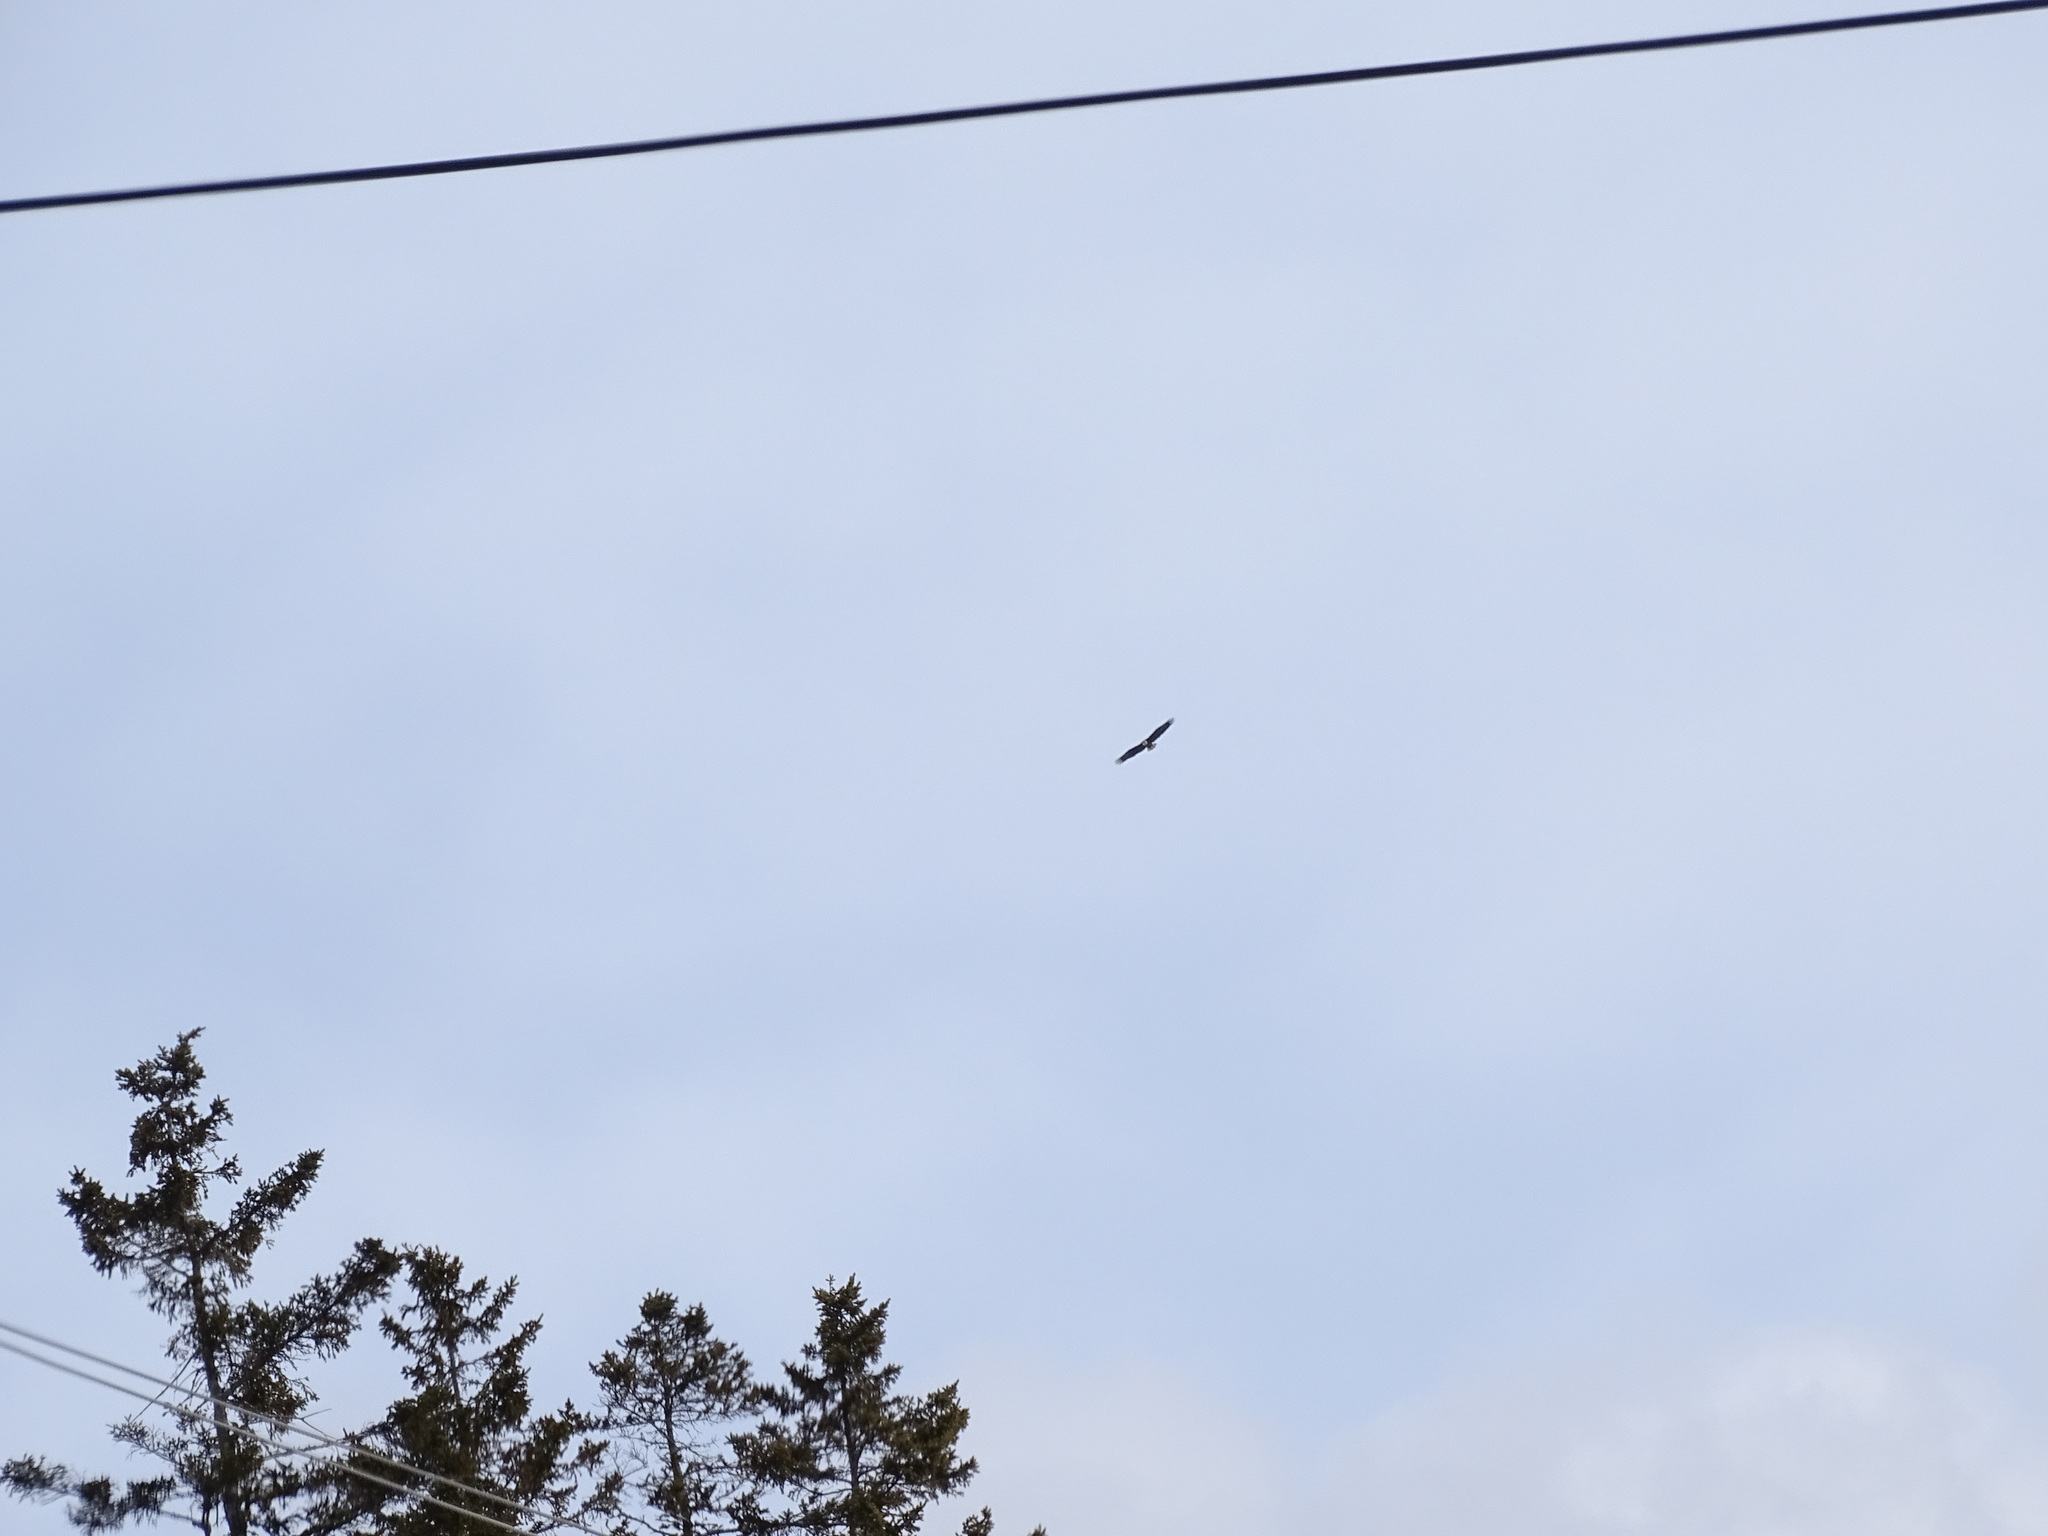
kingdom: Animalia
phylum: Chordata
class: Aves
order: Accipitriformes
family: Accipitridae
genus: Haliaeetus
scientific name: Haliaeetus leucocephalus
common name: Bald eagle
